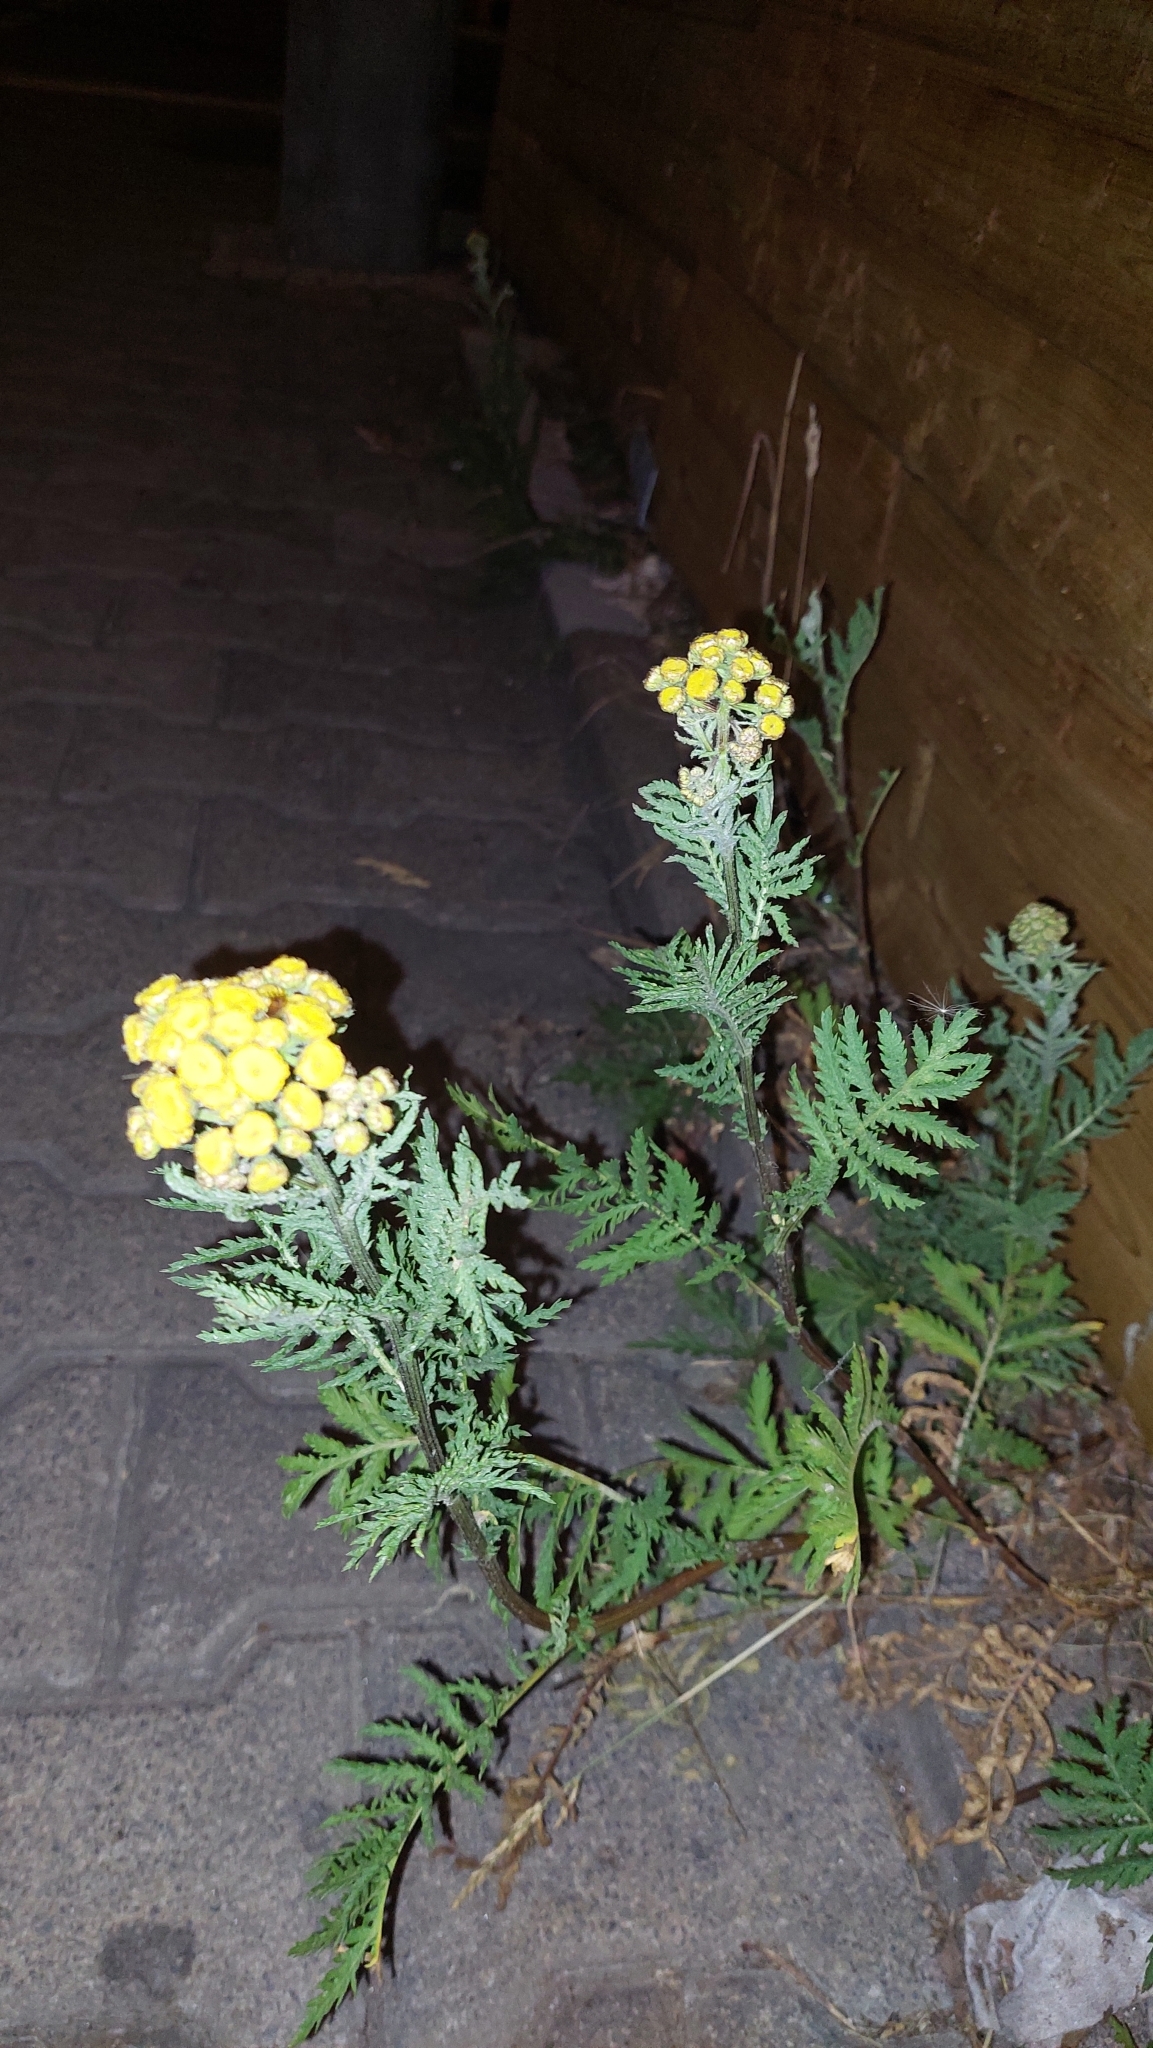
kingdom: Plantae
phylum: Tracheophyta
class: Magnoliopsida
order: Asterales
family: Asteraceae
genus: Tanacetum
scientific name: Tanacetum vulgare
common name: Common tansy
